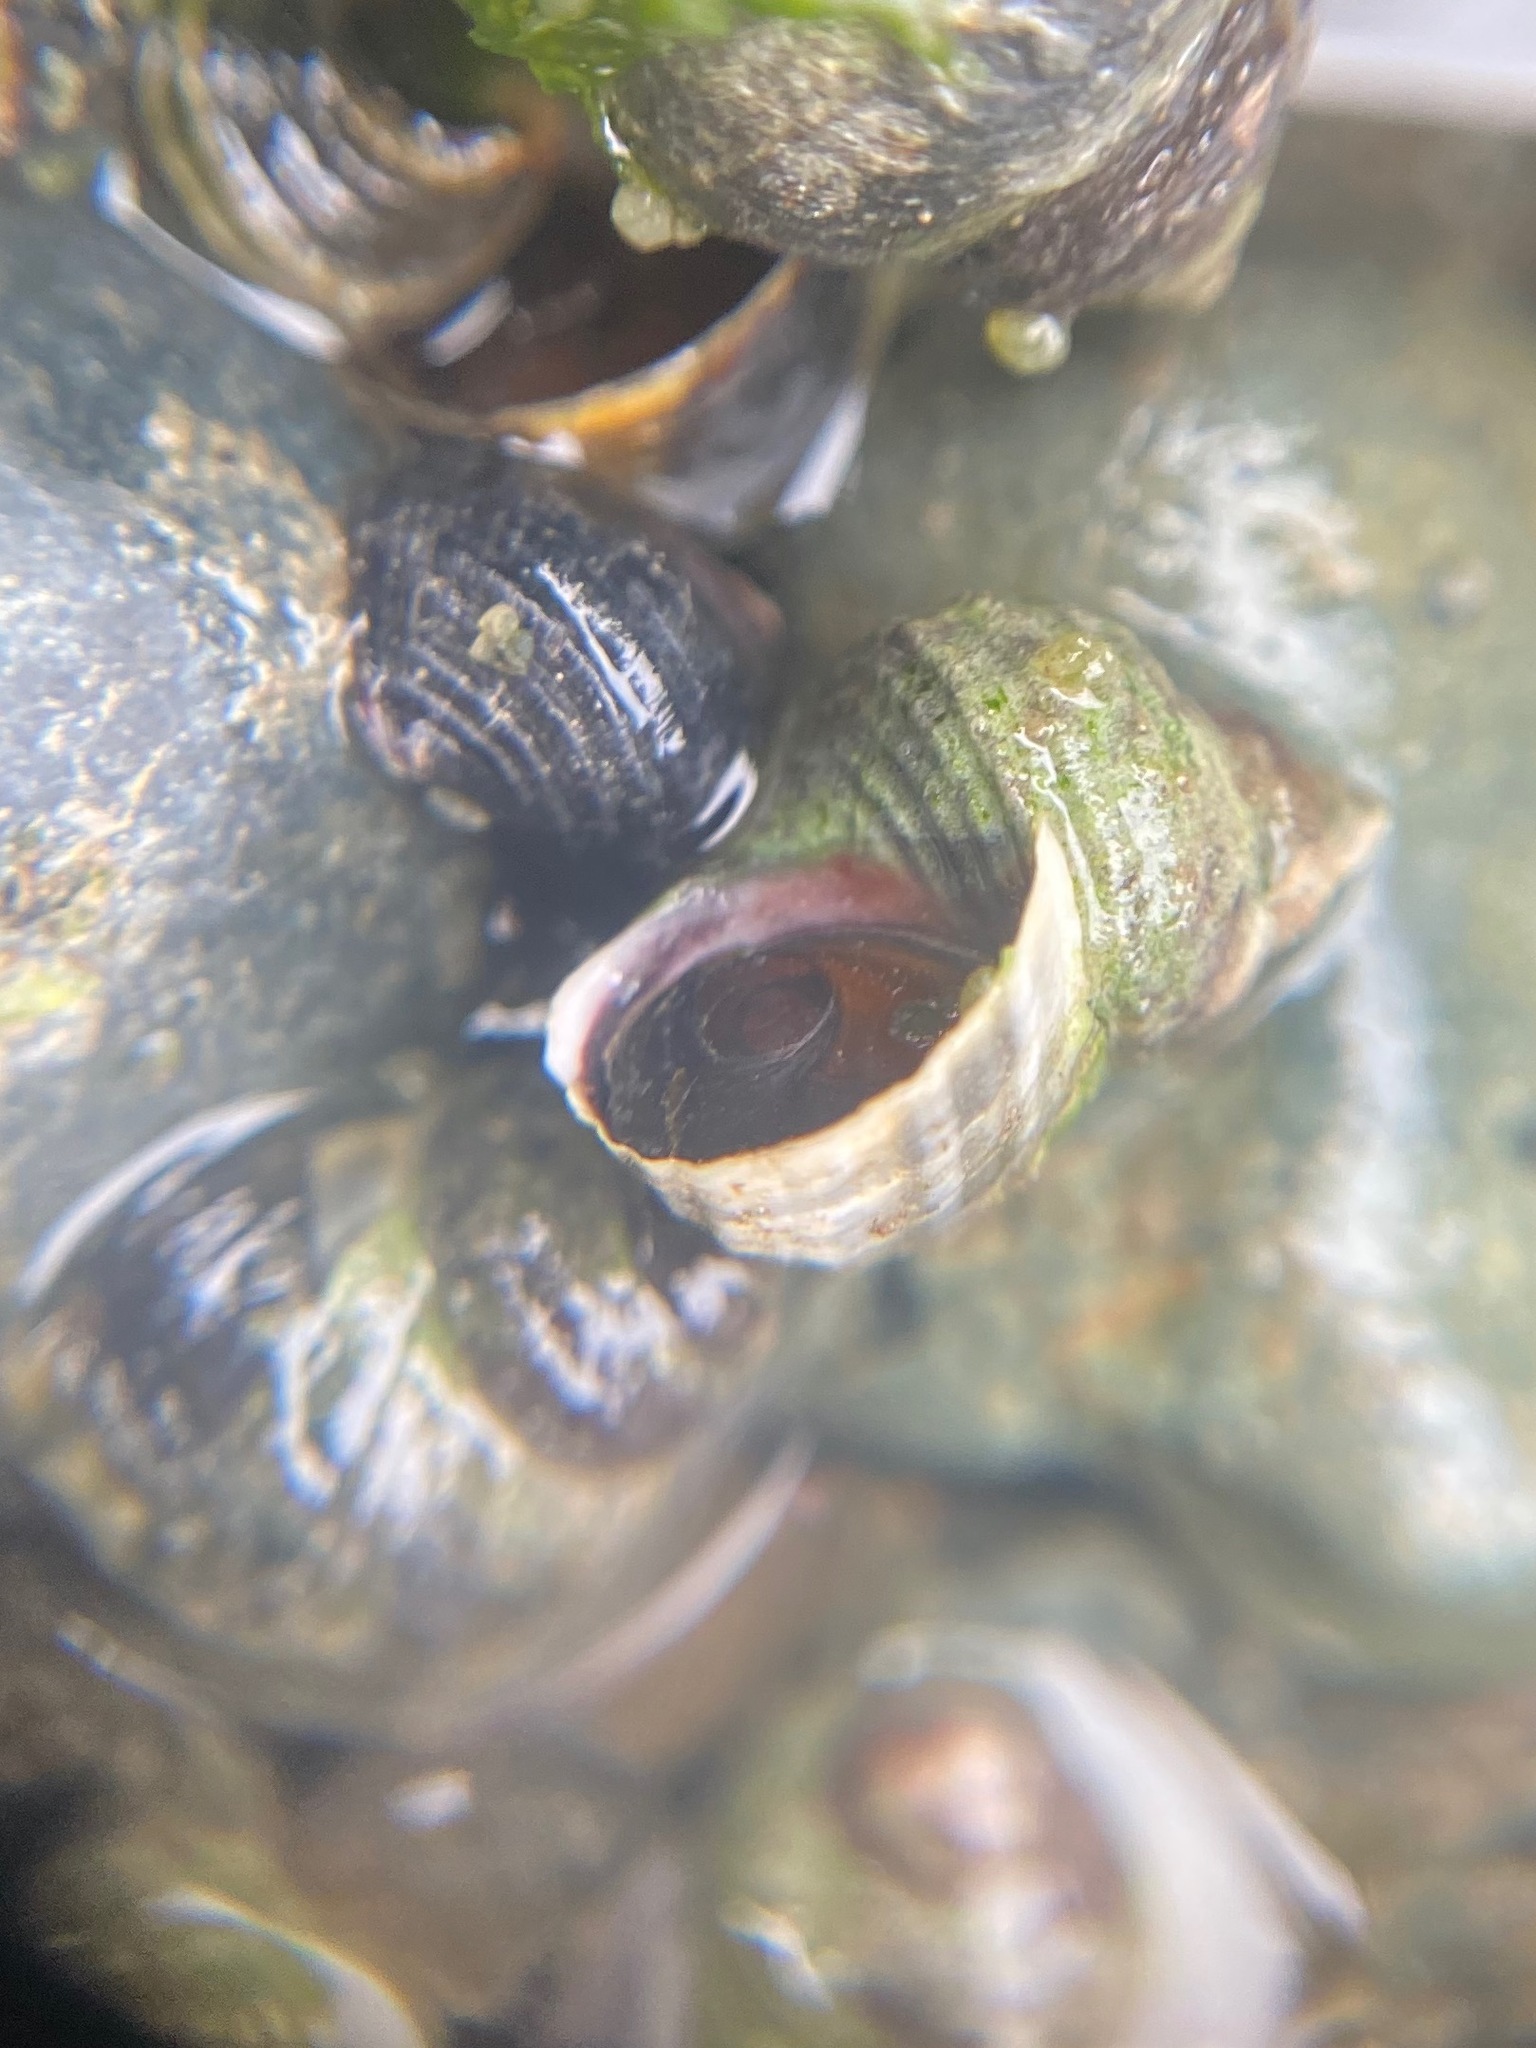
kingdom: Animalia
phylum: Mollusca
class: Gastropoda
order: Littorinimorpha
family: Littorinidae
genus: Littorina
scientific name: Littorina sitkana
